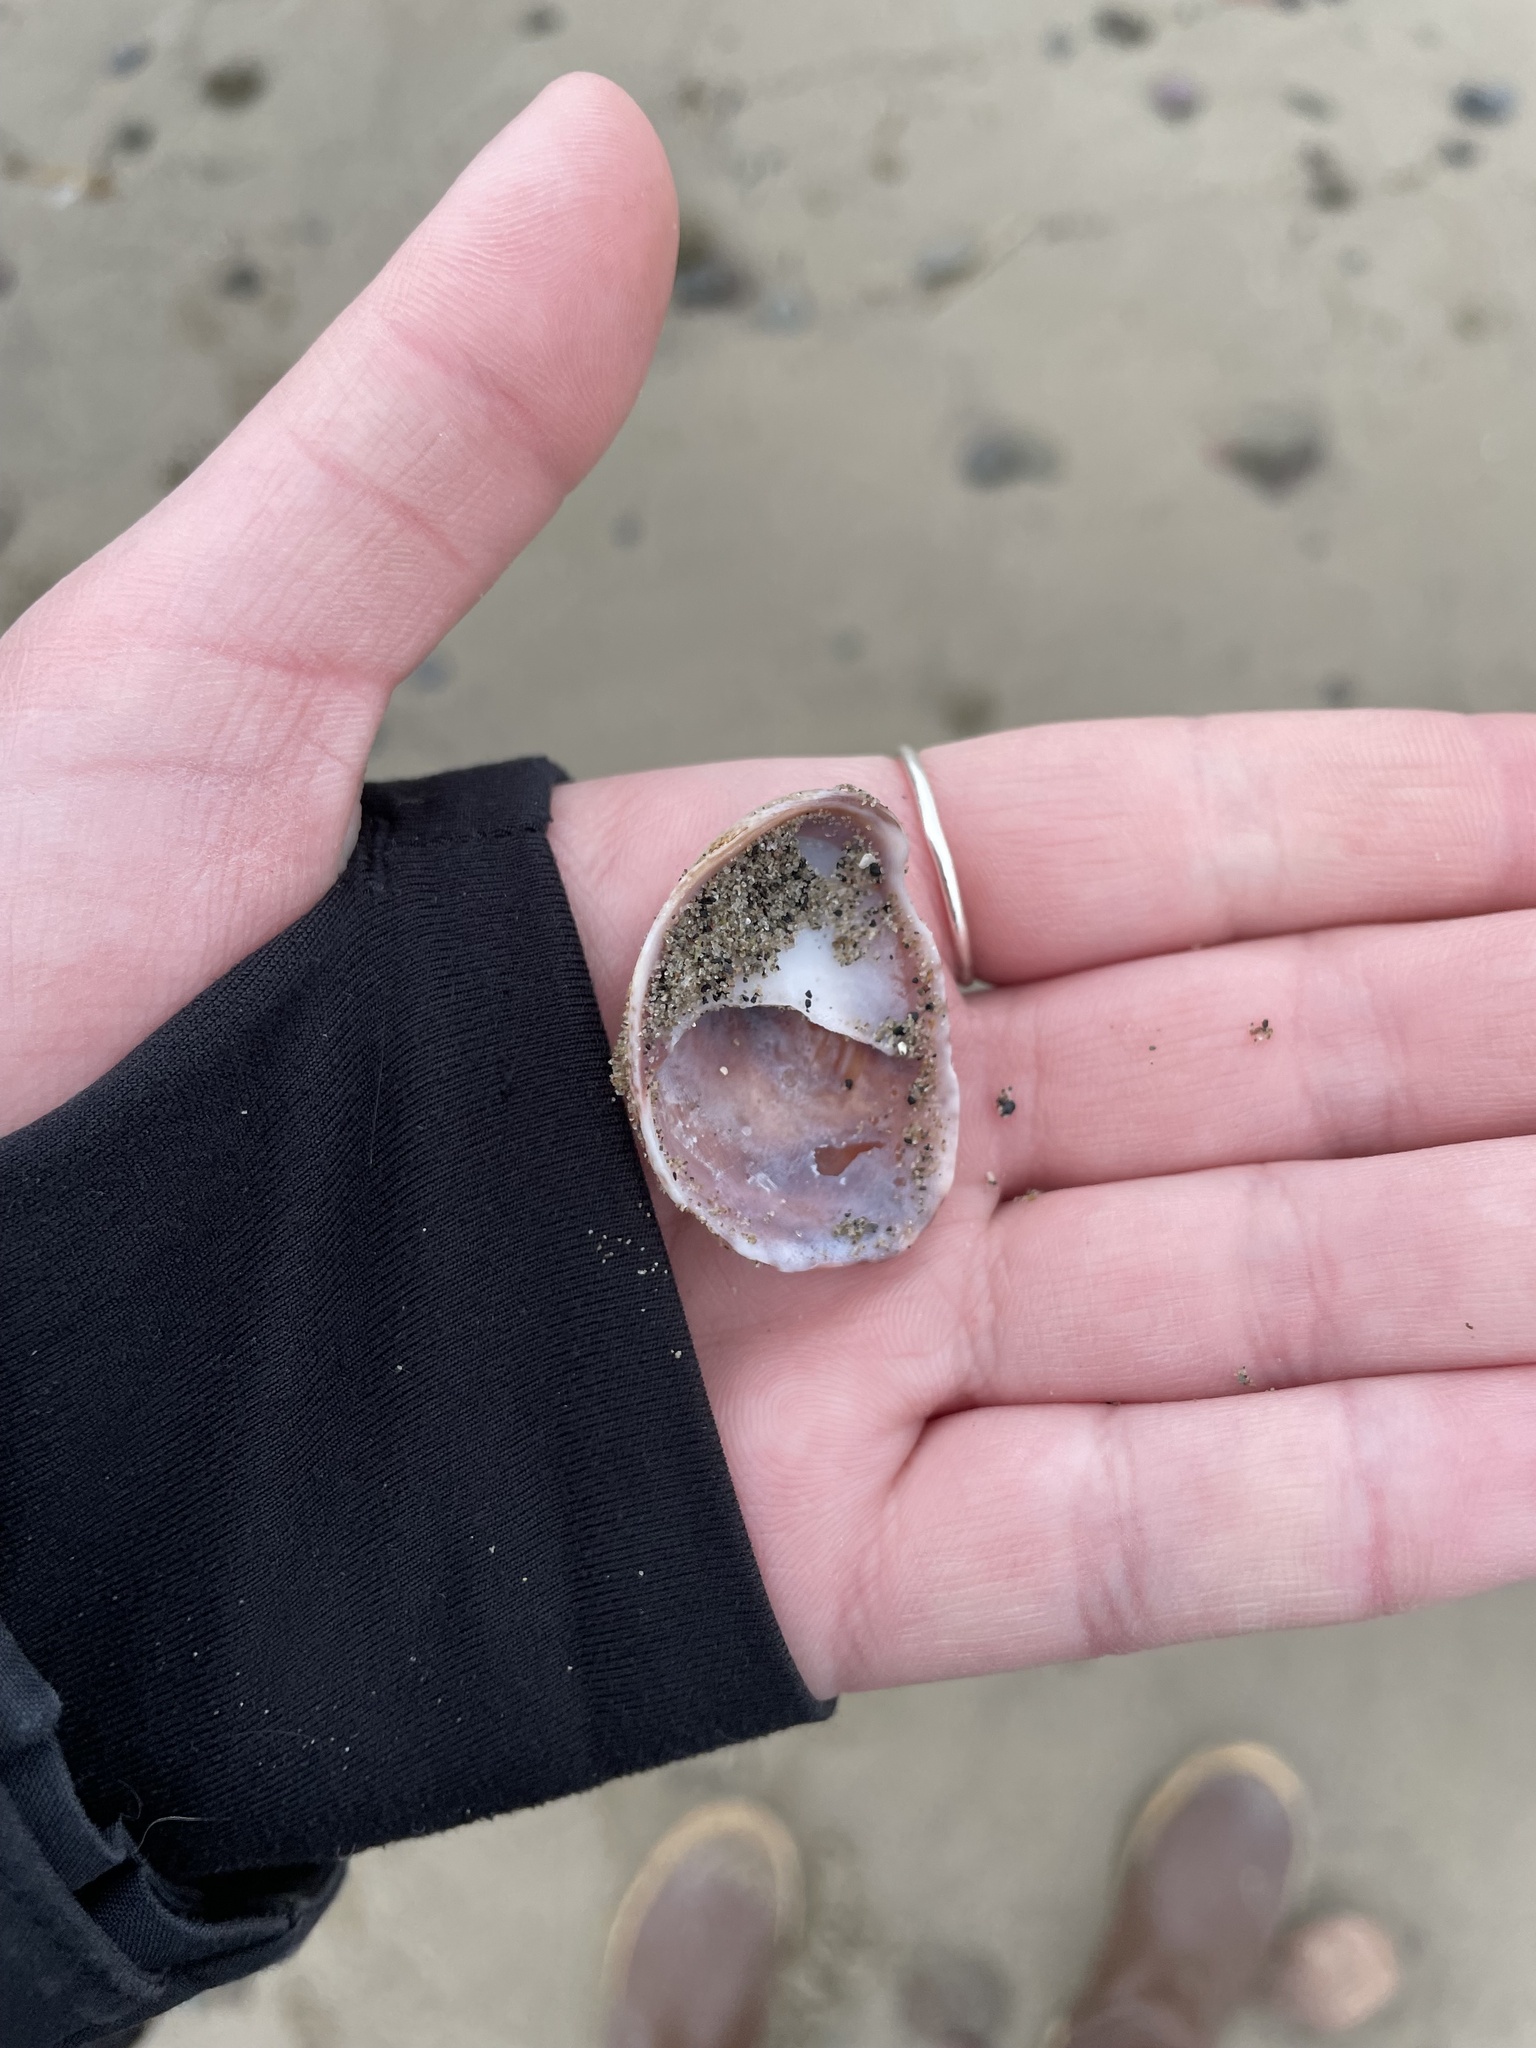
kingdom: Animalia
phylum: Mollusca
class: Gastropoda
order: Littorinimorpha
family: Calyptraeidae
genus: Crepidula
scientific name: Crepidula fornicata
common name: Slipper limpet
